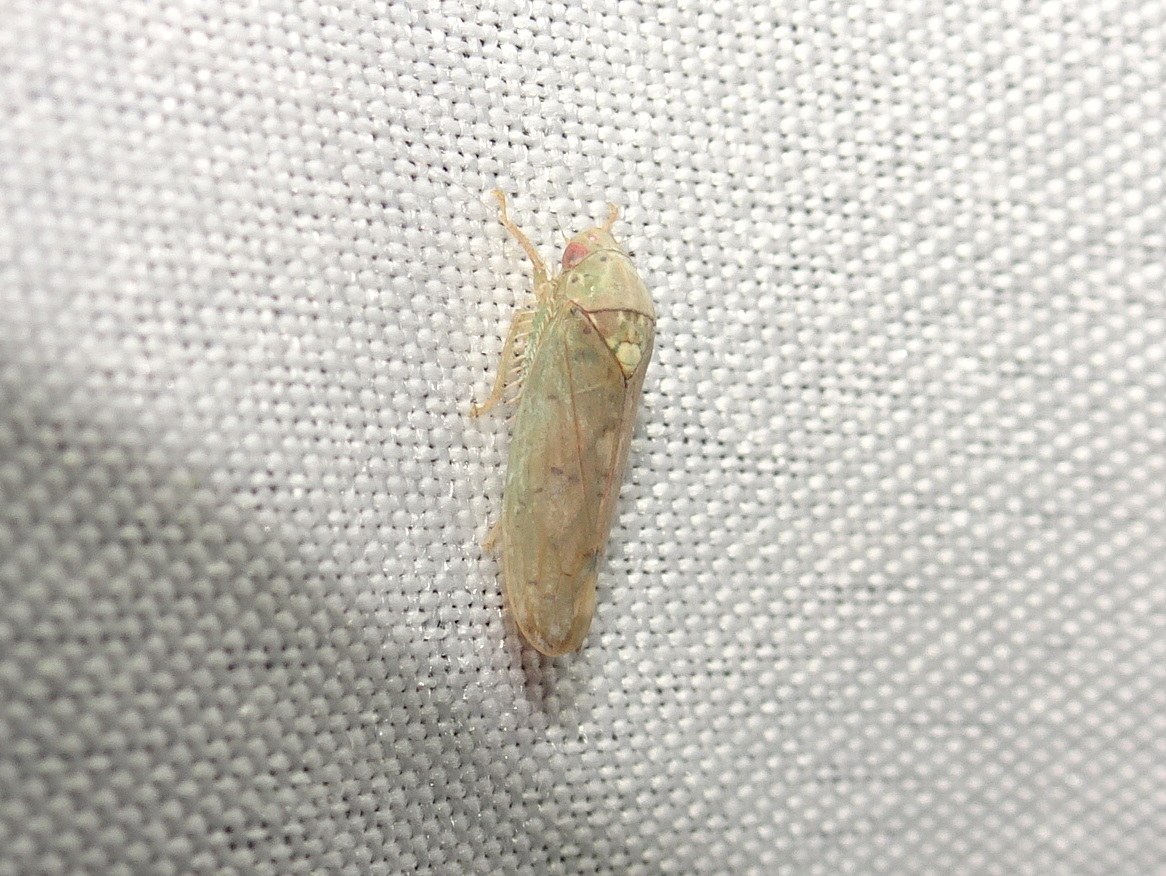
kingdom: Animalia
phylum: Arthropoda
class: Insecta
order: Hemiptera
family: Cicadellidae
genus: Ponana
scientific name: Ponana quadralaba
